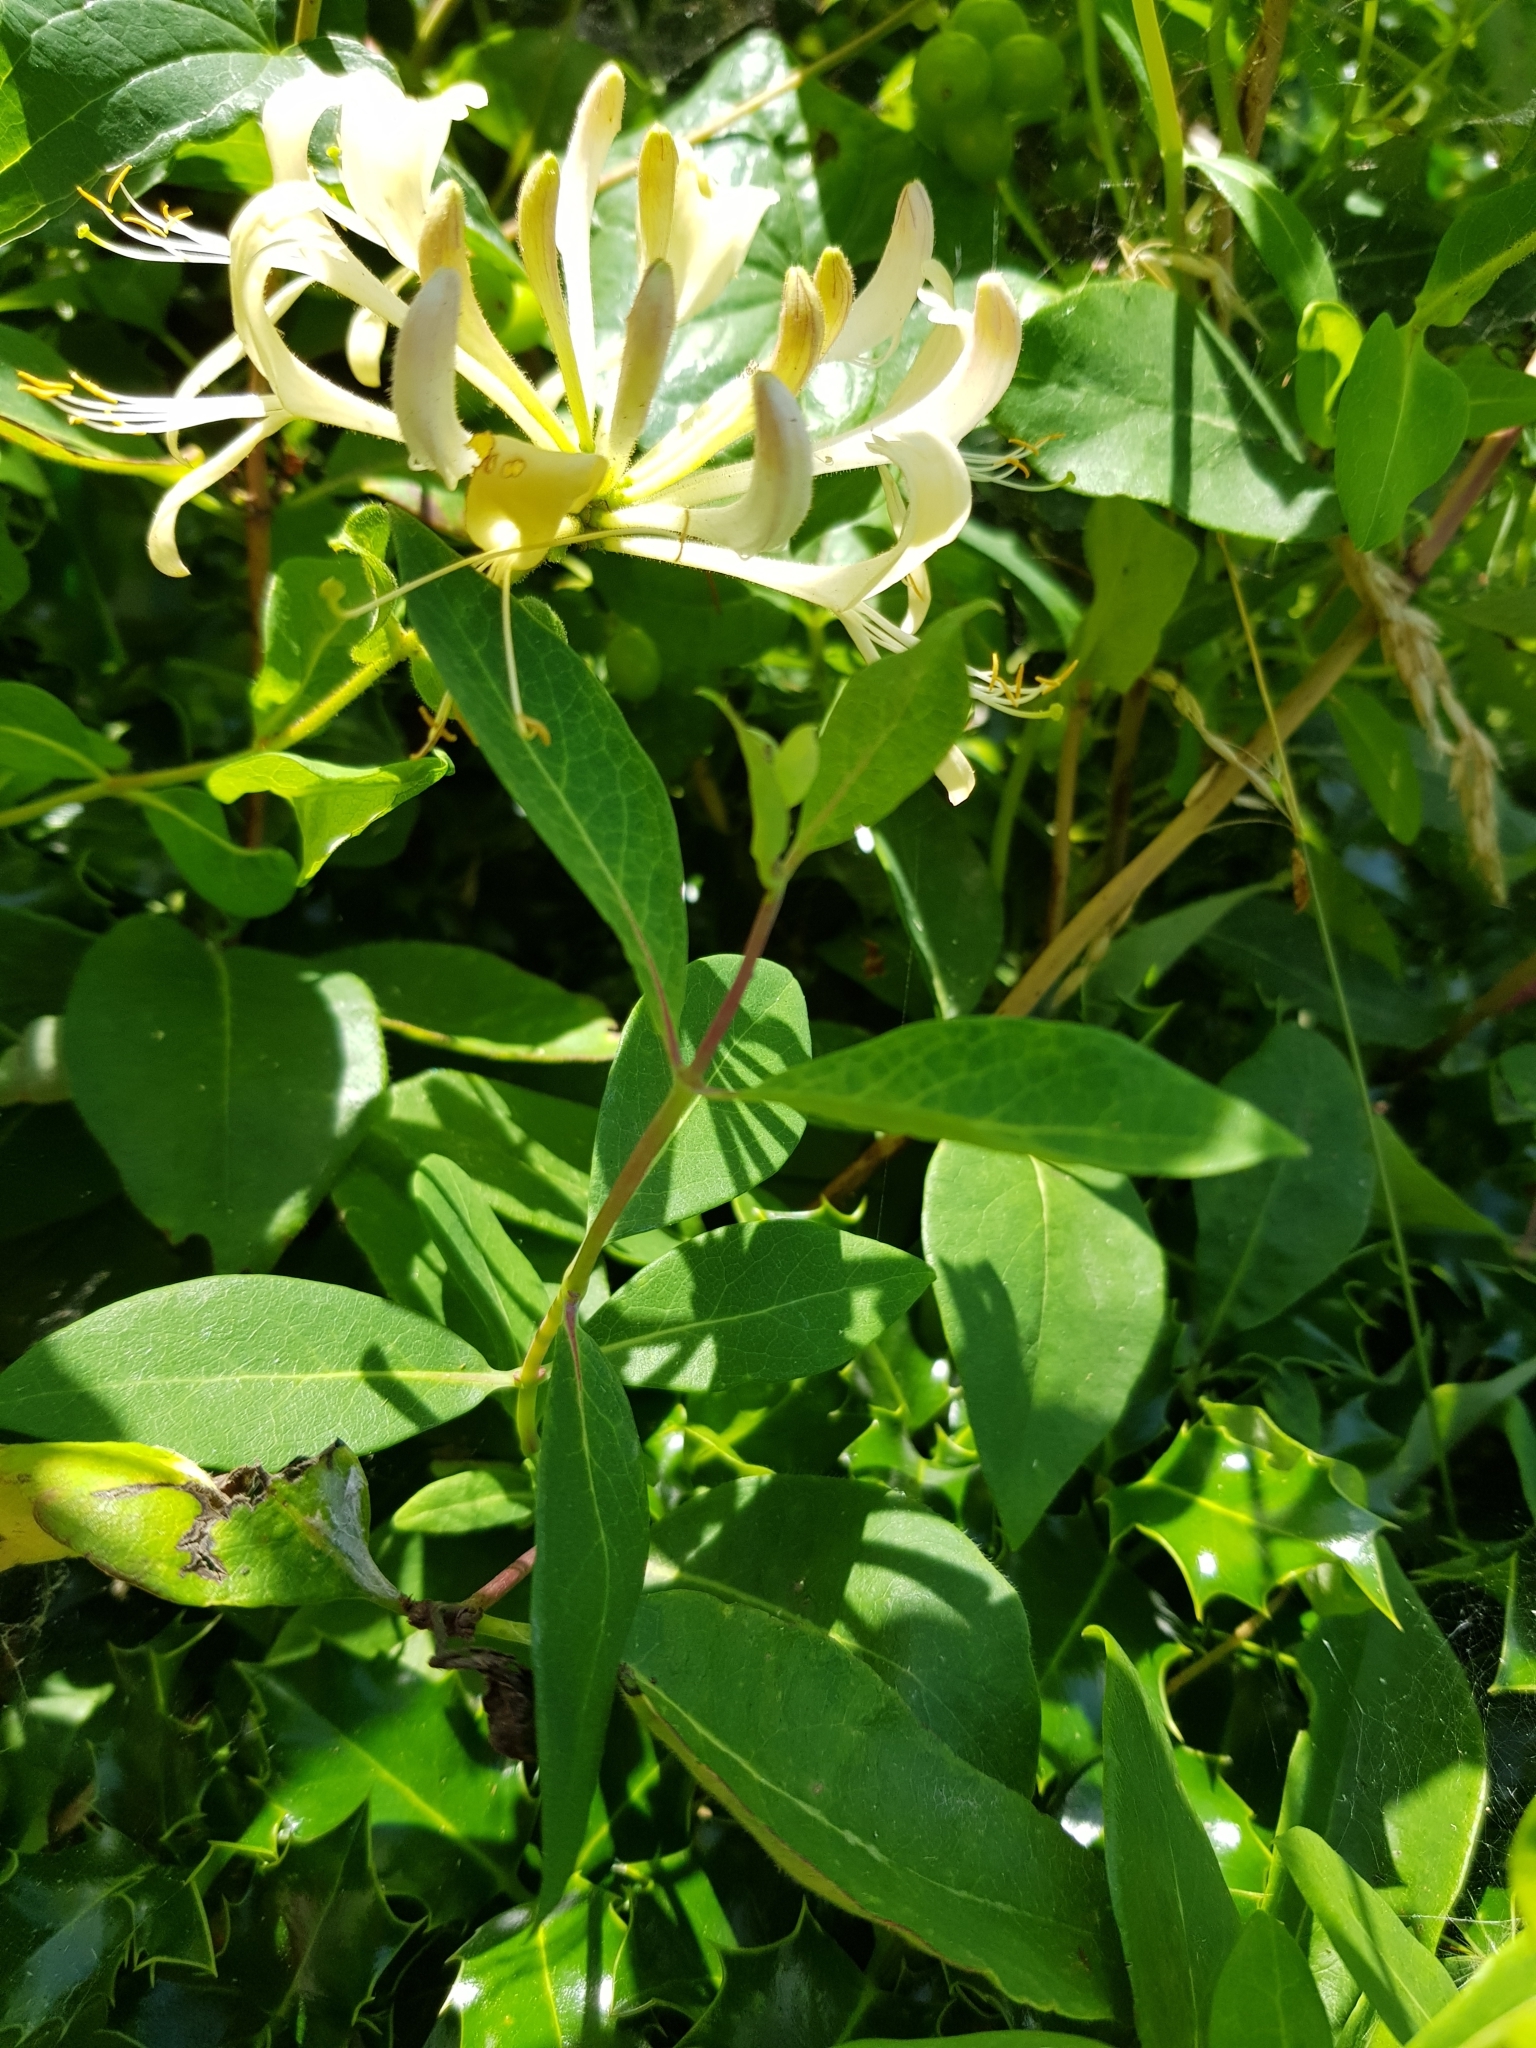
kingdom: Plantae
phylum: Tracheophyta
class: Magnoliopsida
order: Dipsacales
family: Caprifoliaceae
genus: Lonicera
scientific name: Lonicera periclymenum
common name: European honeysuckle
